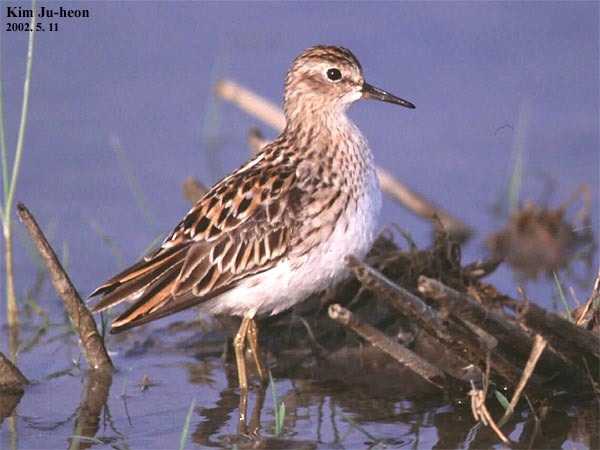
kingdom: Animalia
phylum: Chordata
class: Aves
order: Charadriiformes
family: Scolopacidae
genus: Calidris
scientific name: Calidris subminuta
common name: Long-toed stint
